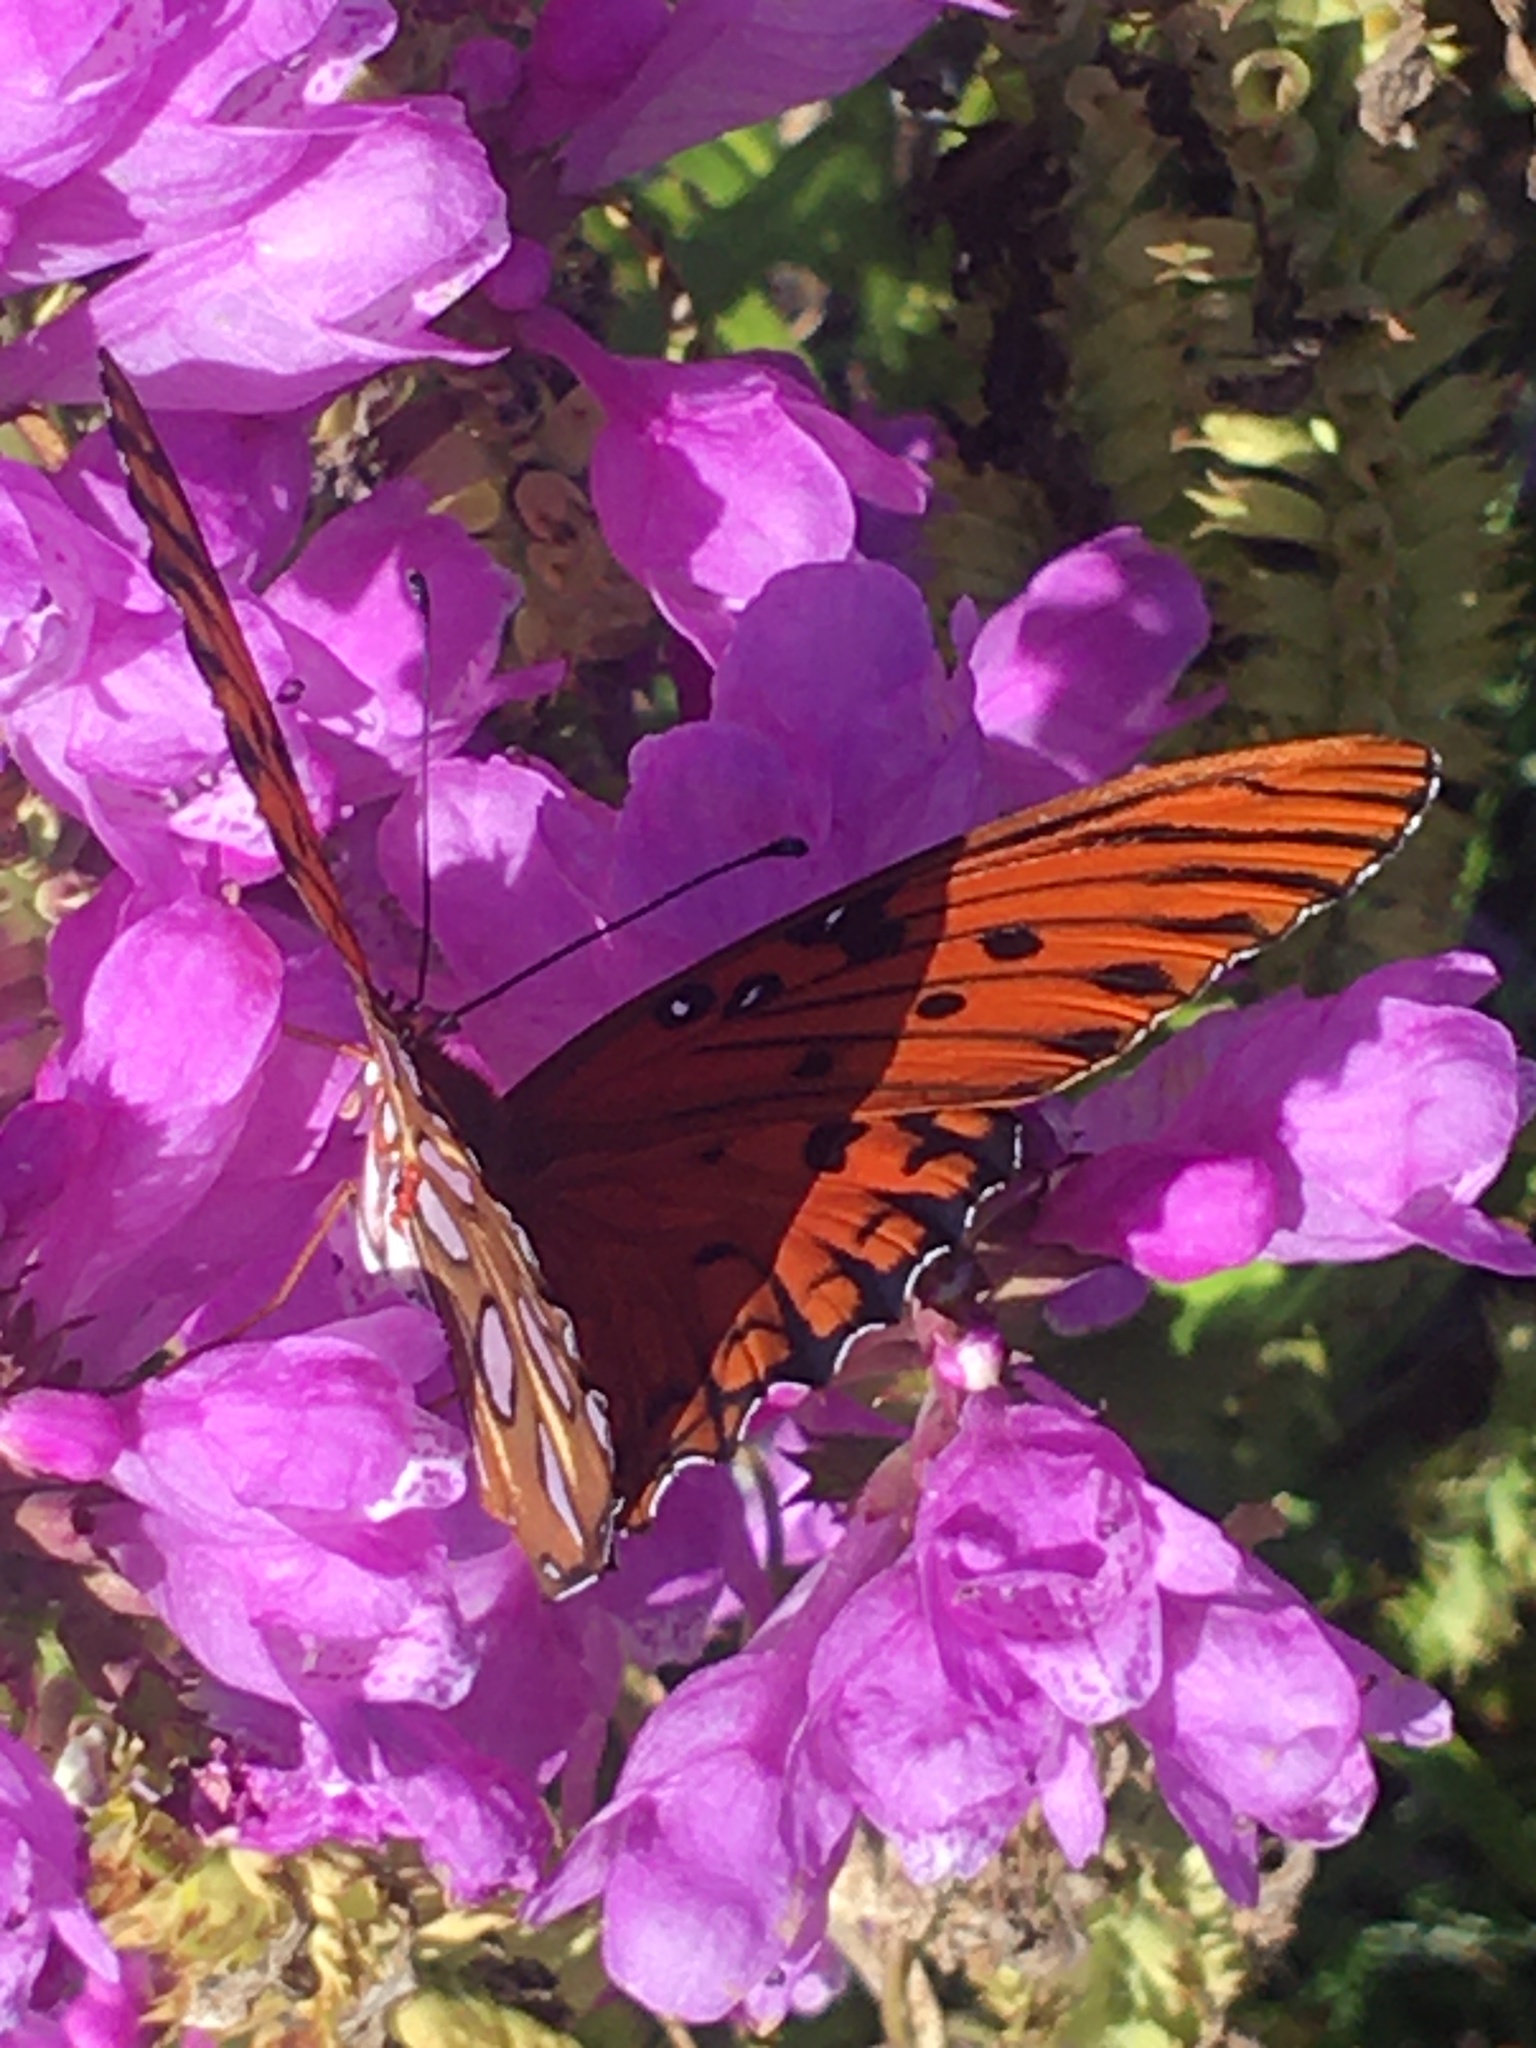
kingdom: Animalia
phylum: Arthropoda
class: Insecta
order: Lepidoptera
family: Nymphalidae
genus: Dione
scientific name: Dione vanillae
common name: Gulf fritillary
